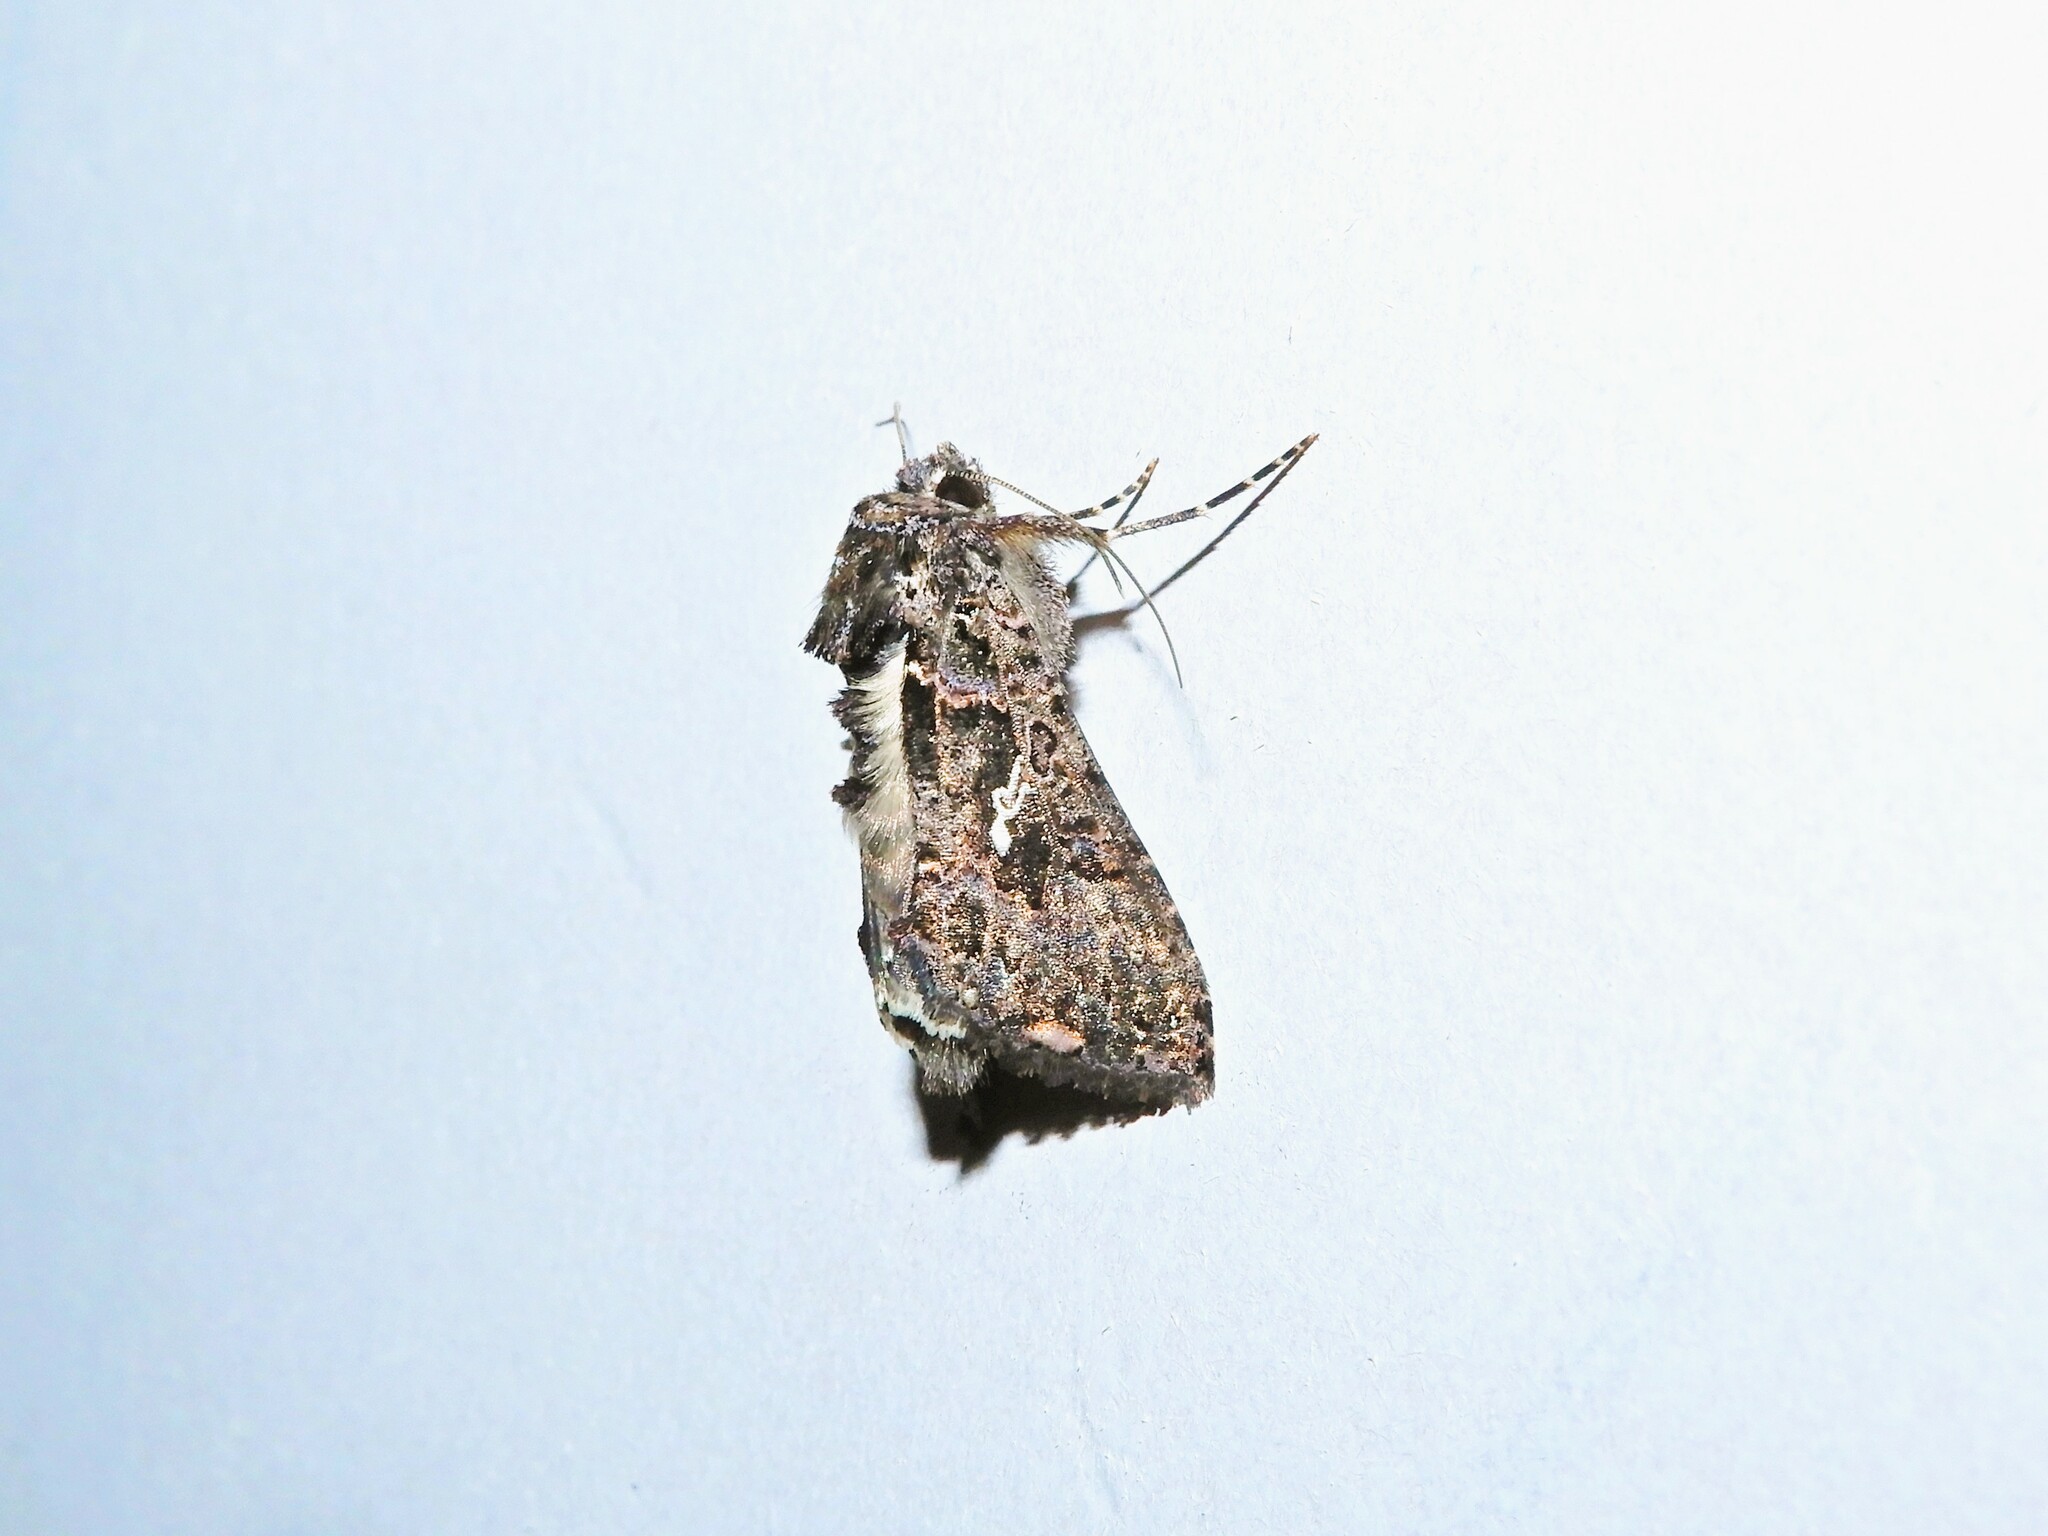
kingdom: Animalia
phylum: Arthropoda
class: Insecta
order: Lepidoptera
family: Noctuidae
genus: Ctenoplusia
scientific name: Ctenoplusia limbirena
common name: Scar bank gem
